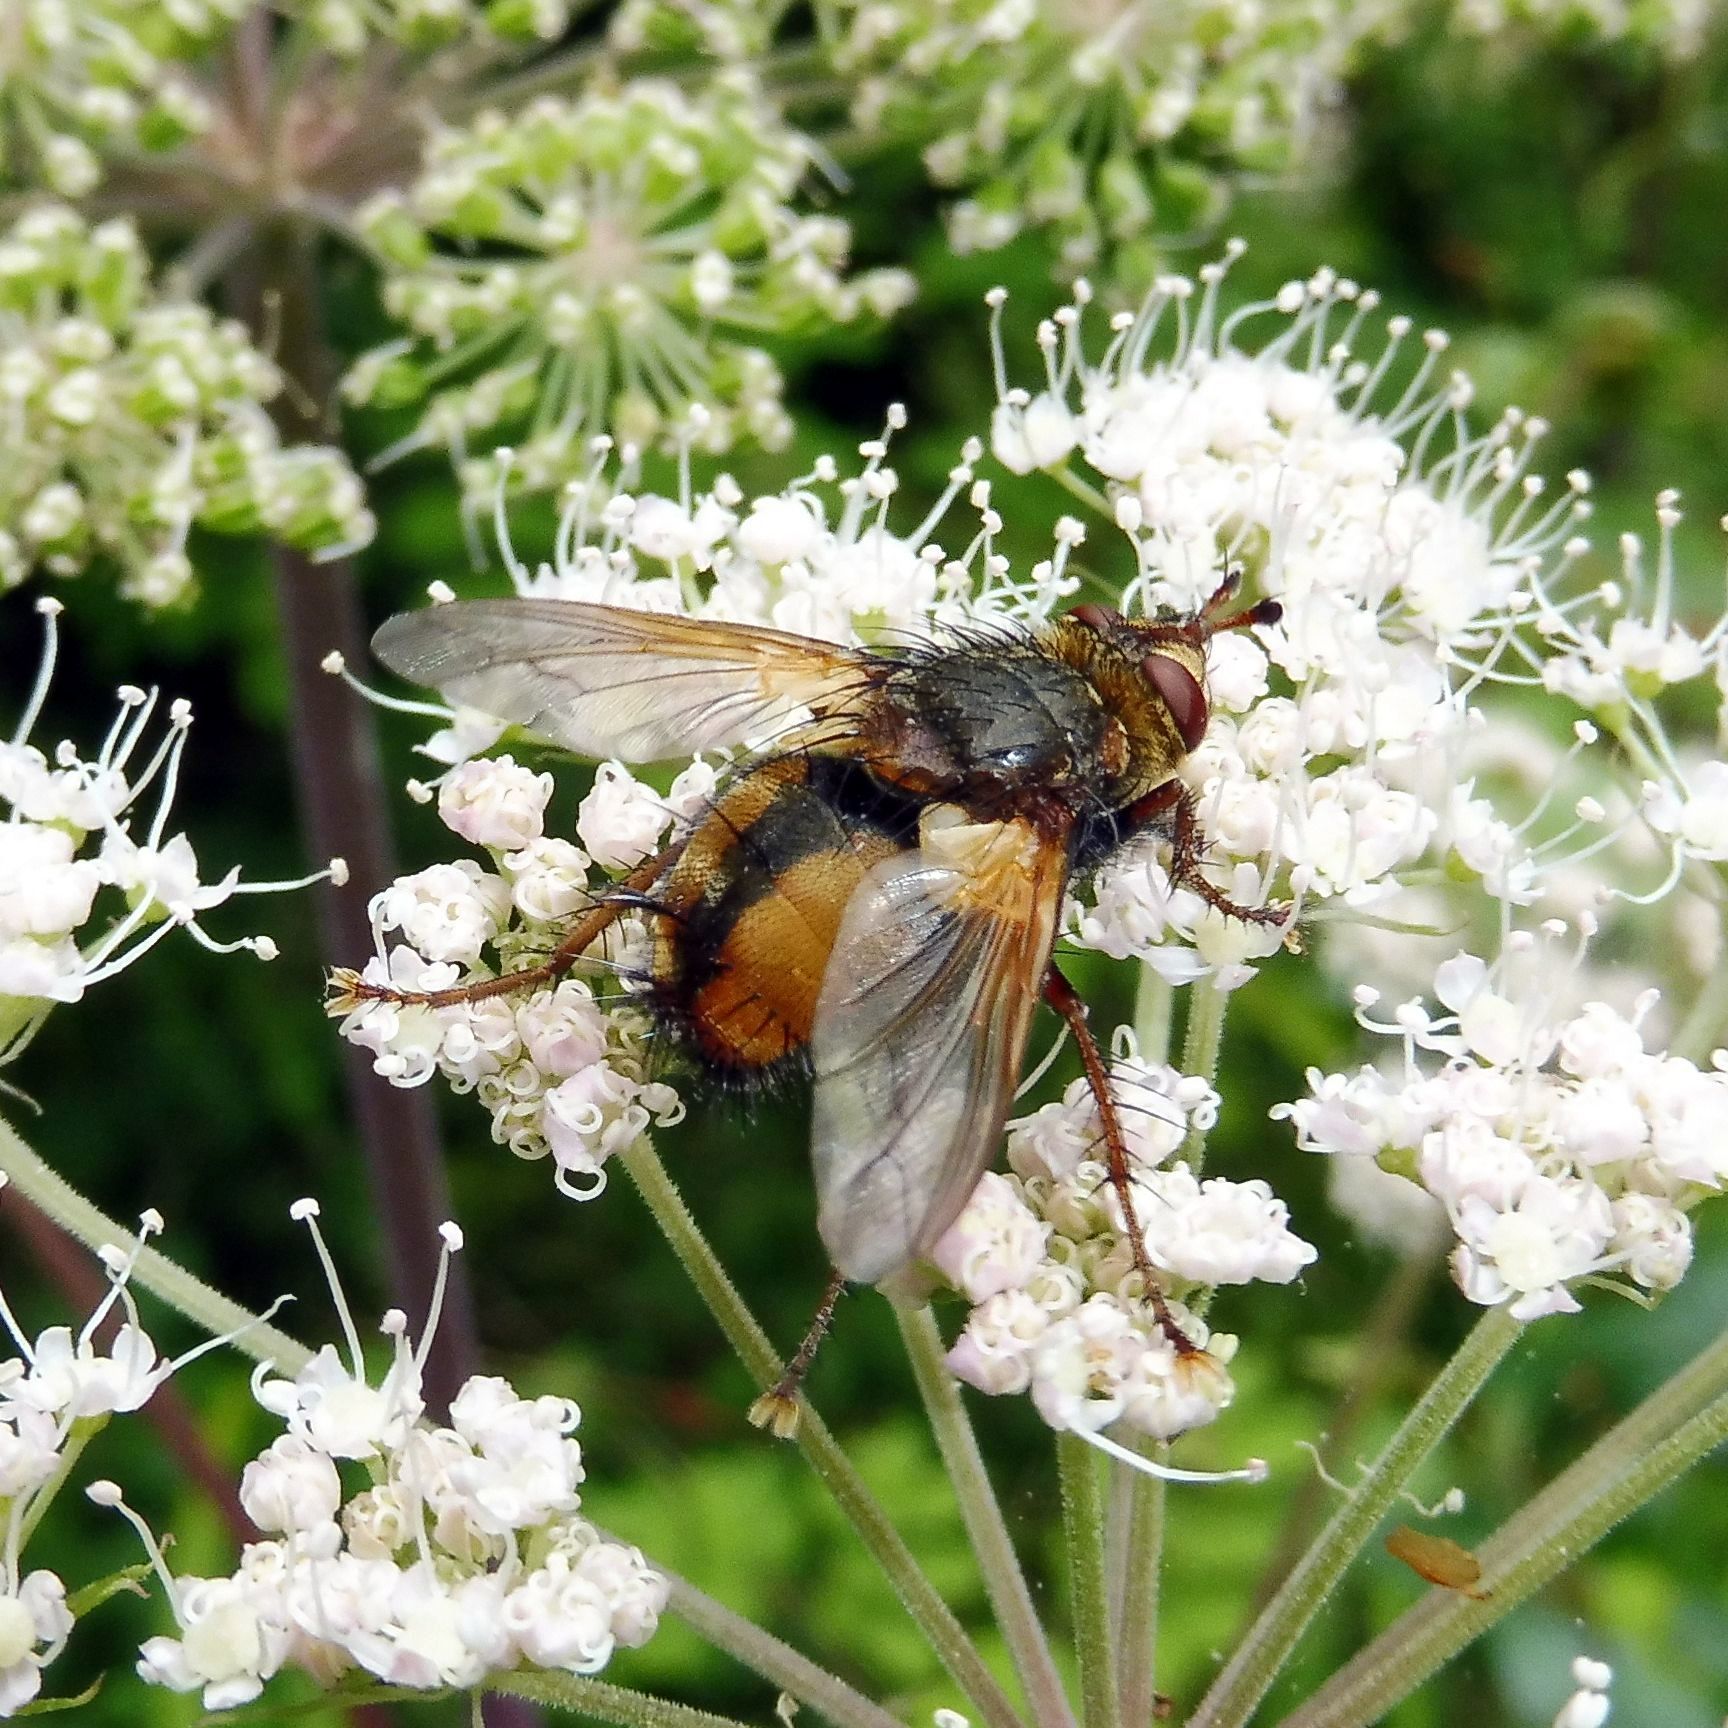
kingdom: Animalia
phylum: Arthropoda
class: Insecta
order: Diptera
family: Tachinidae
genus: Tachina
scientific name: Tachina fera
